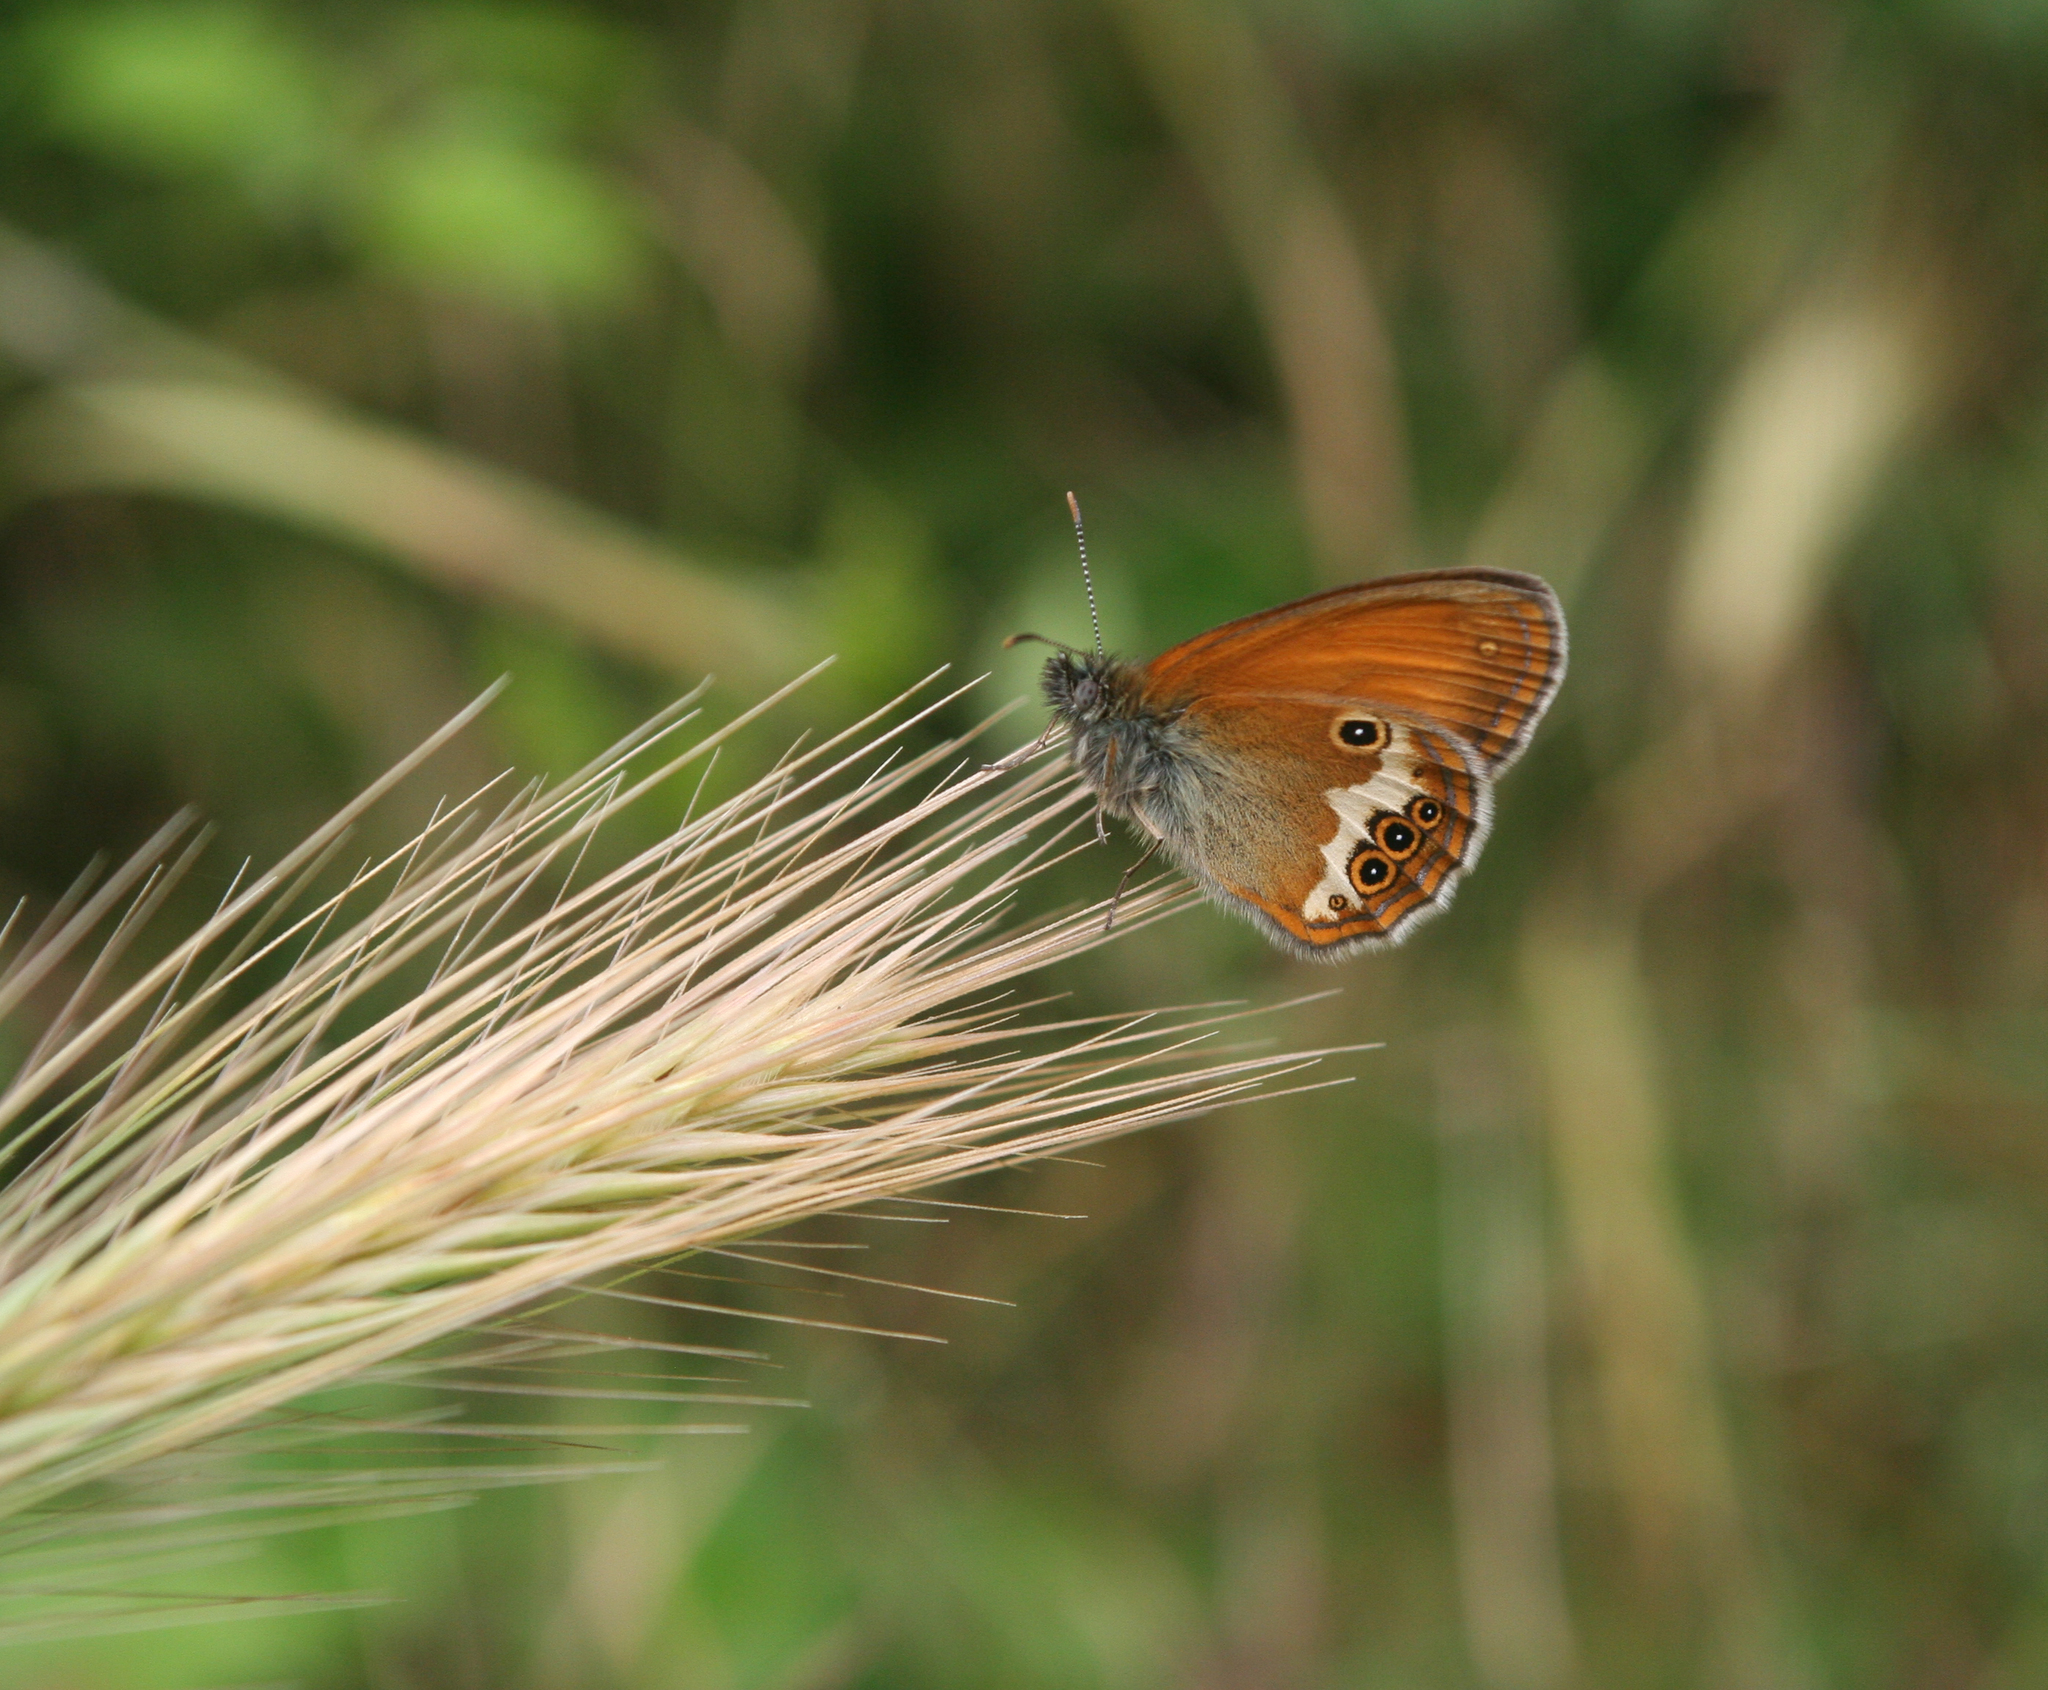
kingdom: Plantae
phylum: Tracheophyta
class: Liliopsida
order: Poales
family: Poaceae
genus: Hordeum
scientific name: Hordeum murinum
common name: Wall barley
